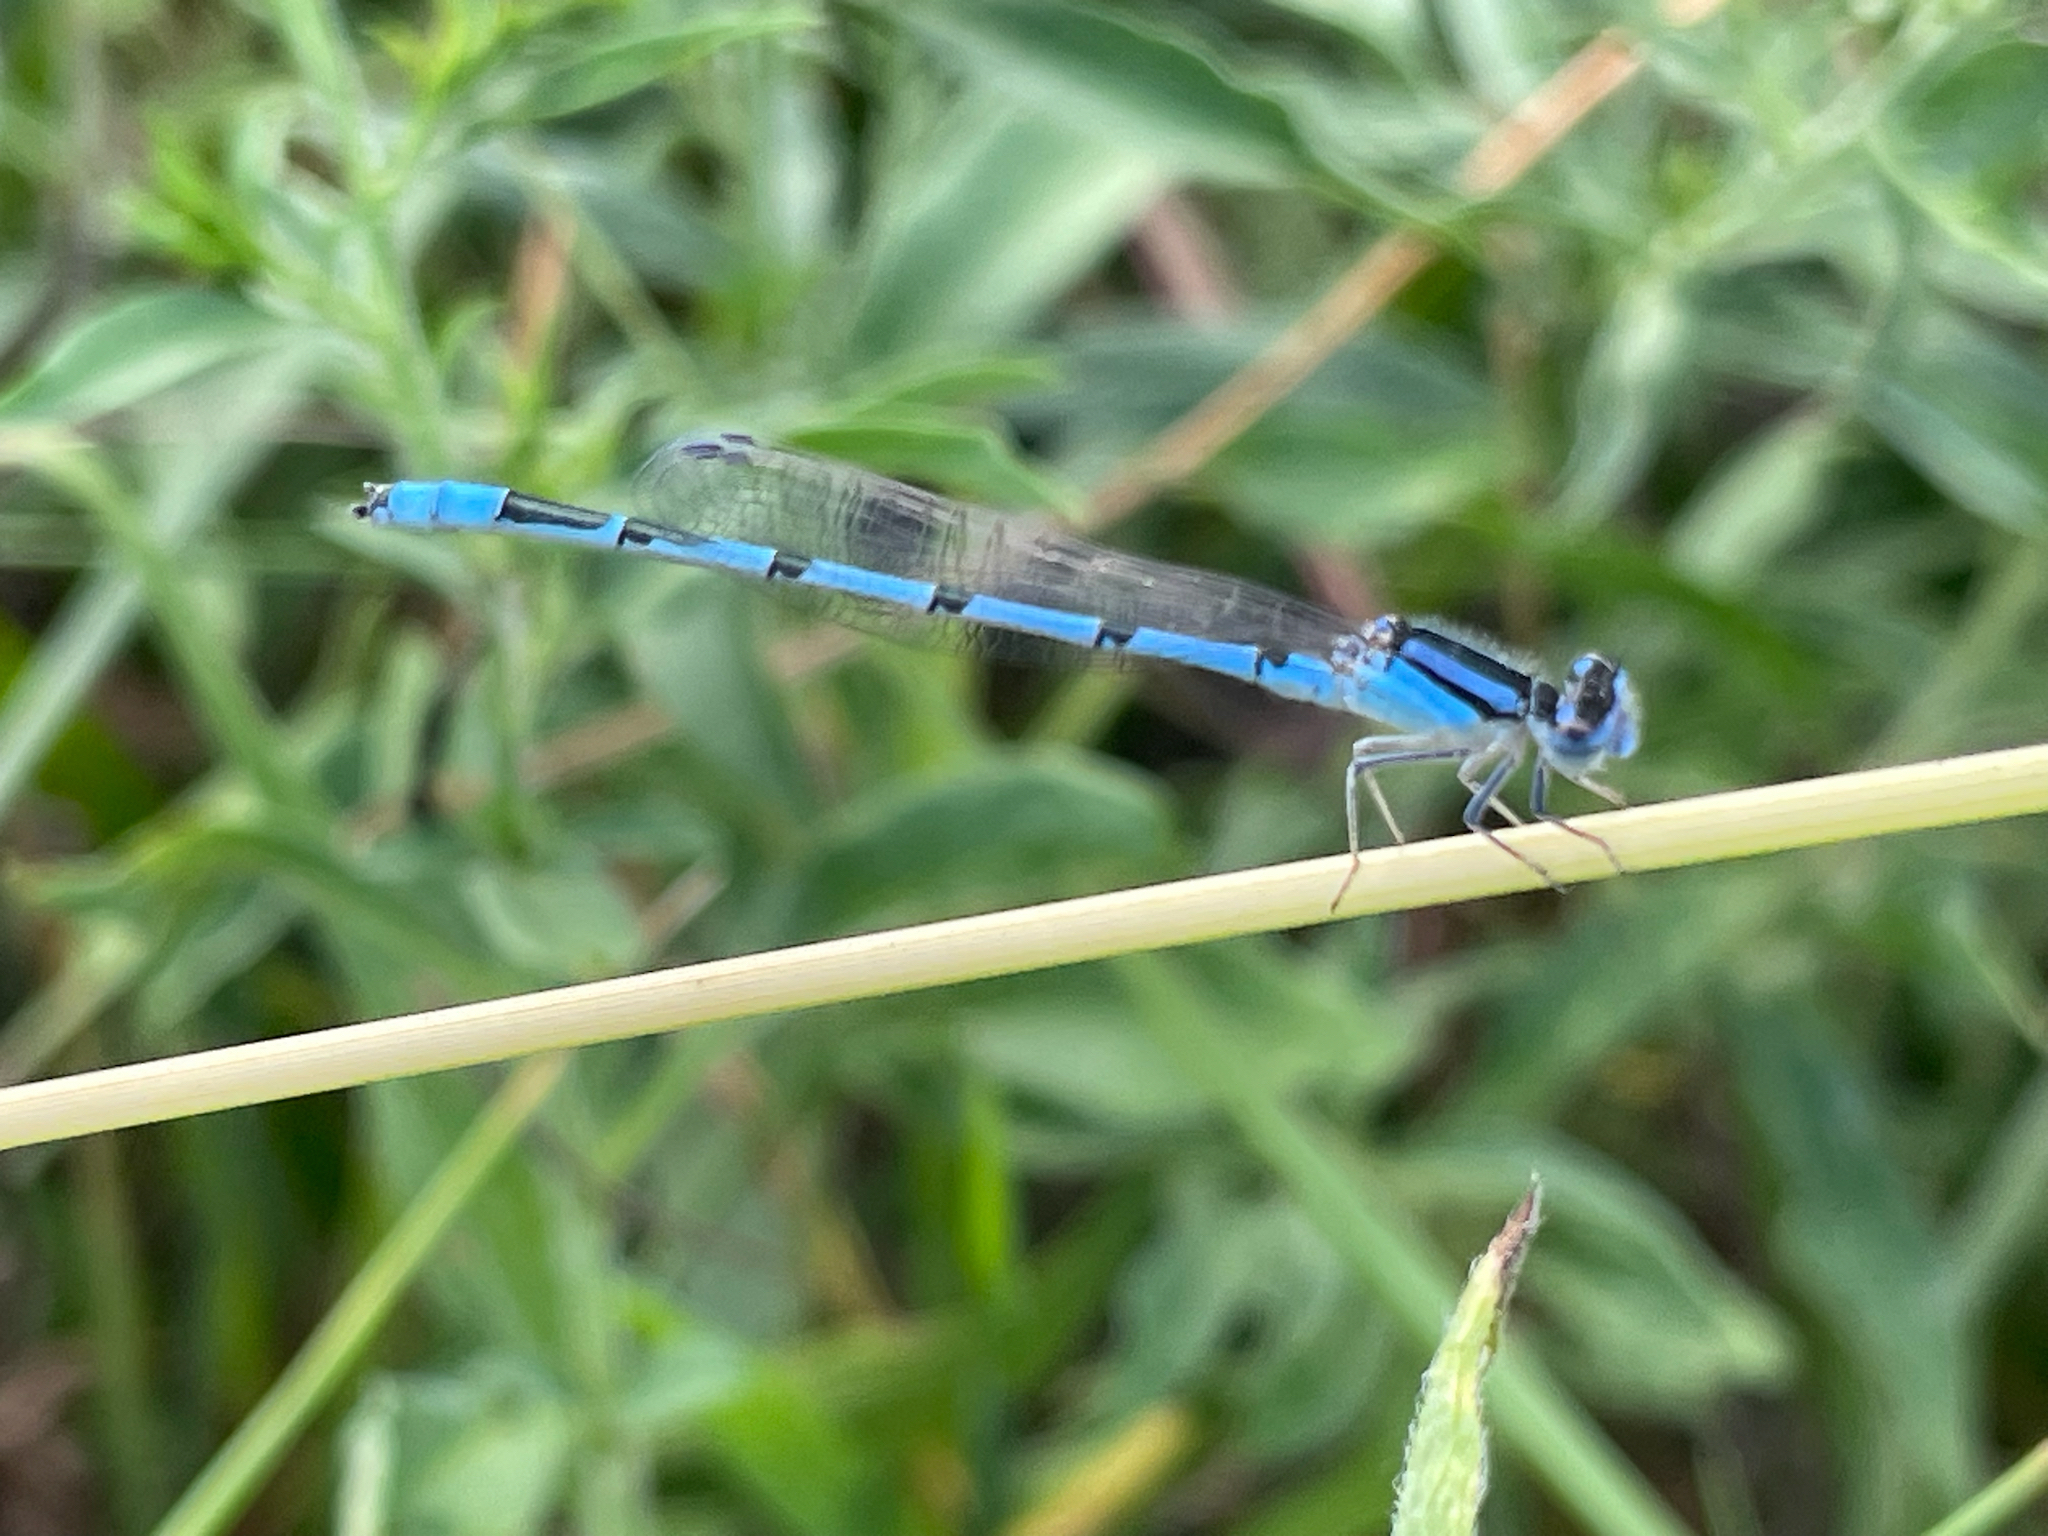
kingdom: Animalia
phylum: Arthropoda
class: Insecta
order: Odonata
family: Coenagrionidae
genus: Enallagma
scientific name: Enallagma civile
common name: Damselfly
